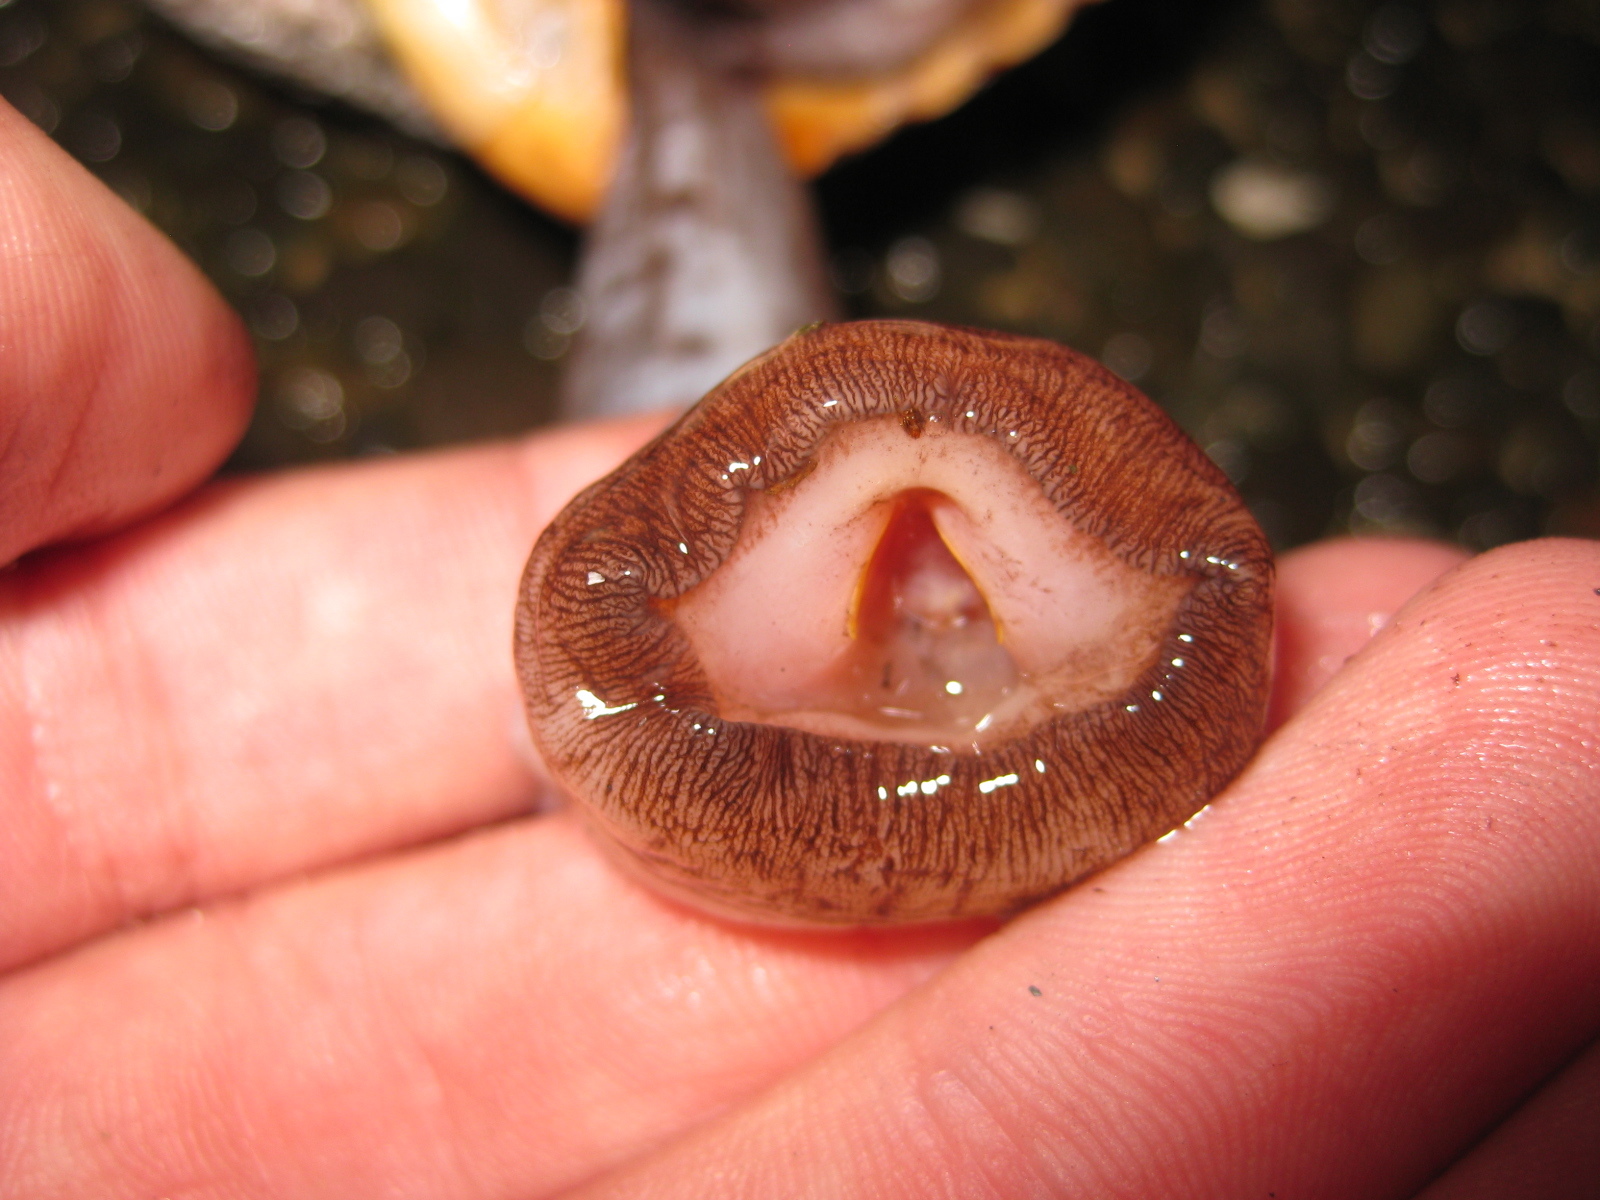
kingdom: Animalia
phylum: Mollusca
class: Gastropoda
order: Littorinimorpha
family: Tonnidae
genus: Tonna
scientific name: Tonna tankervillii
